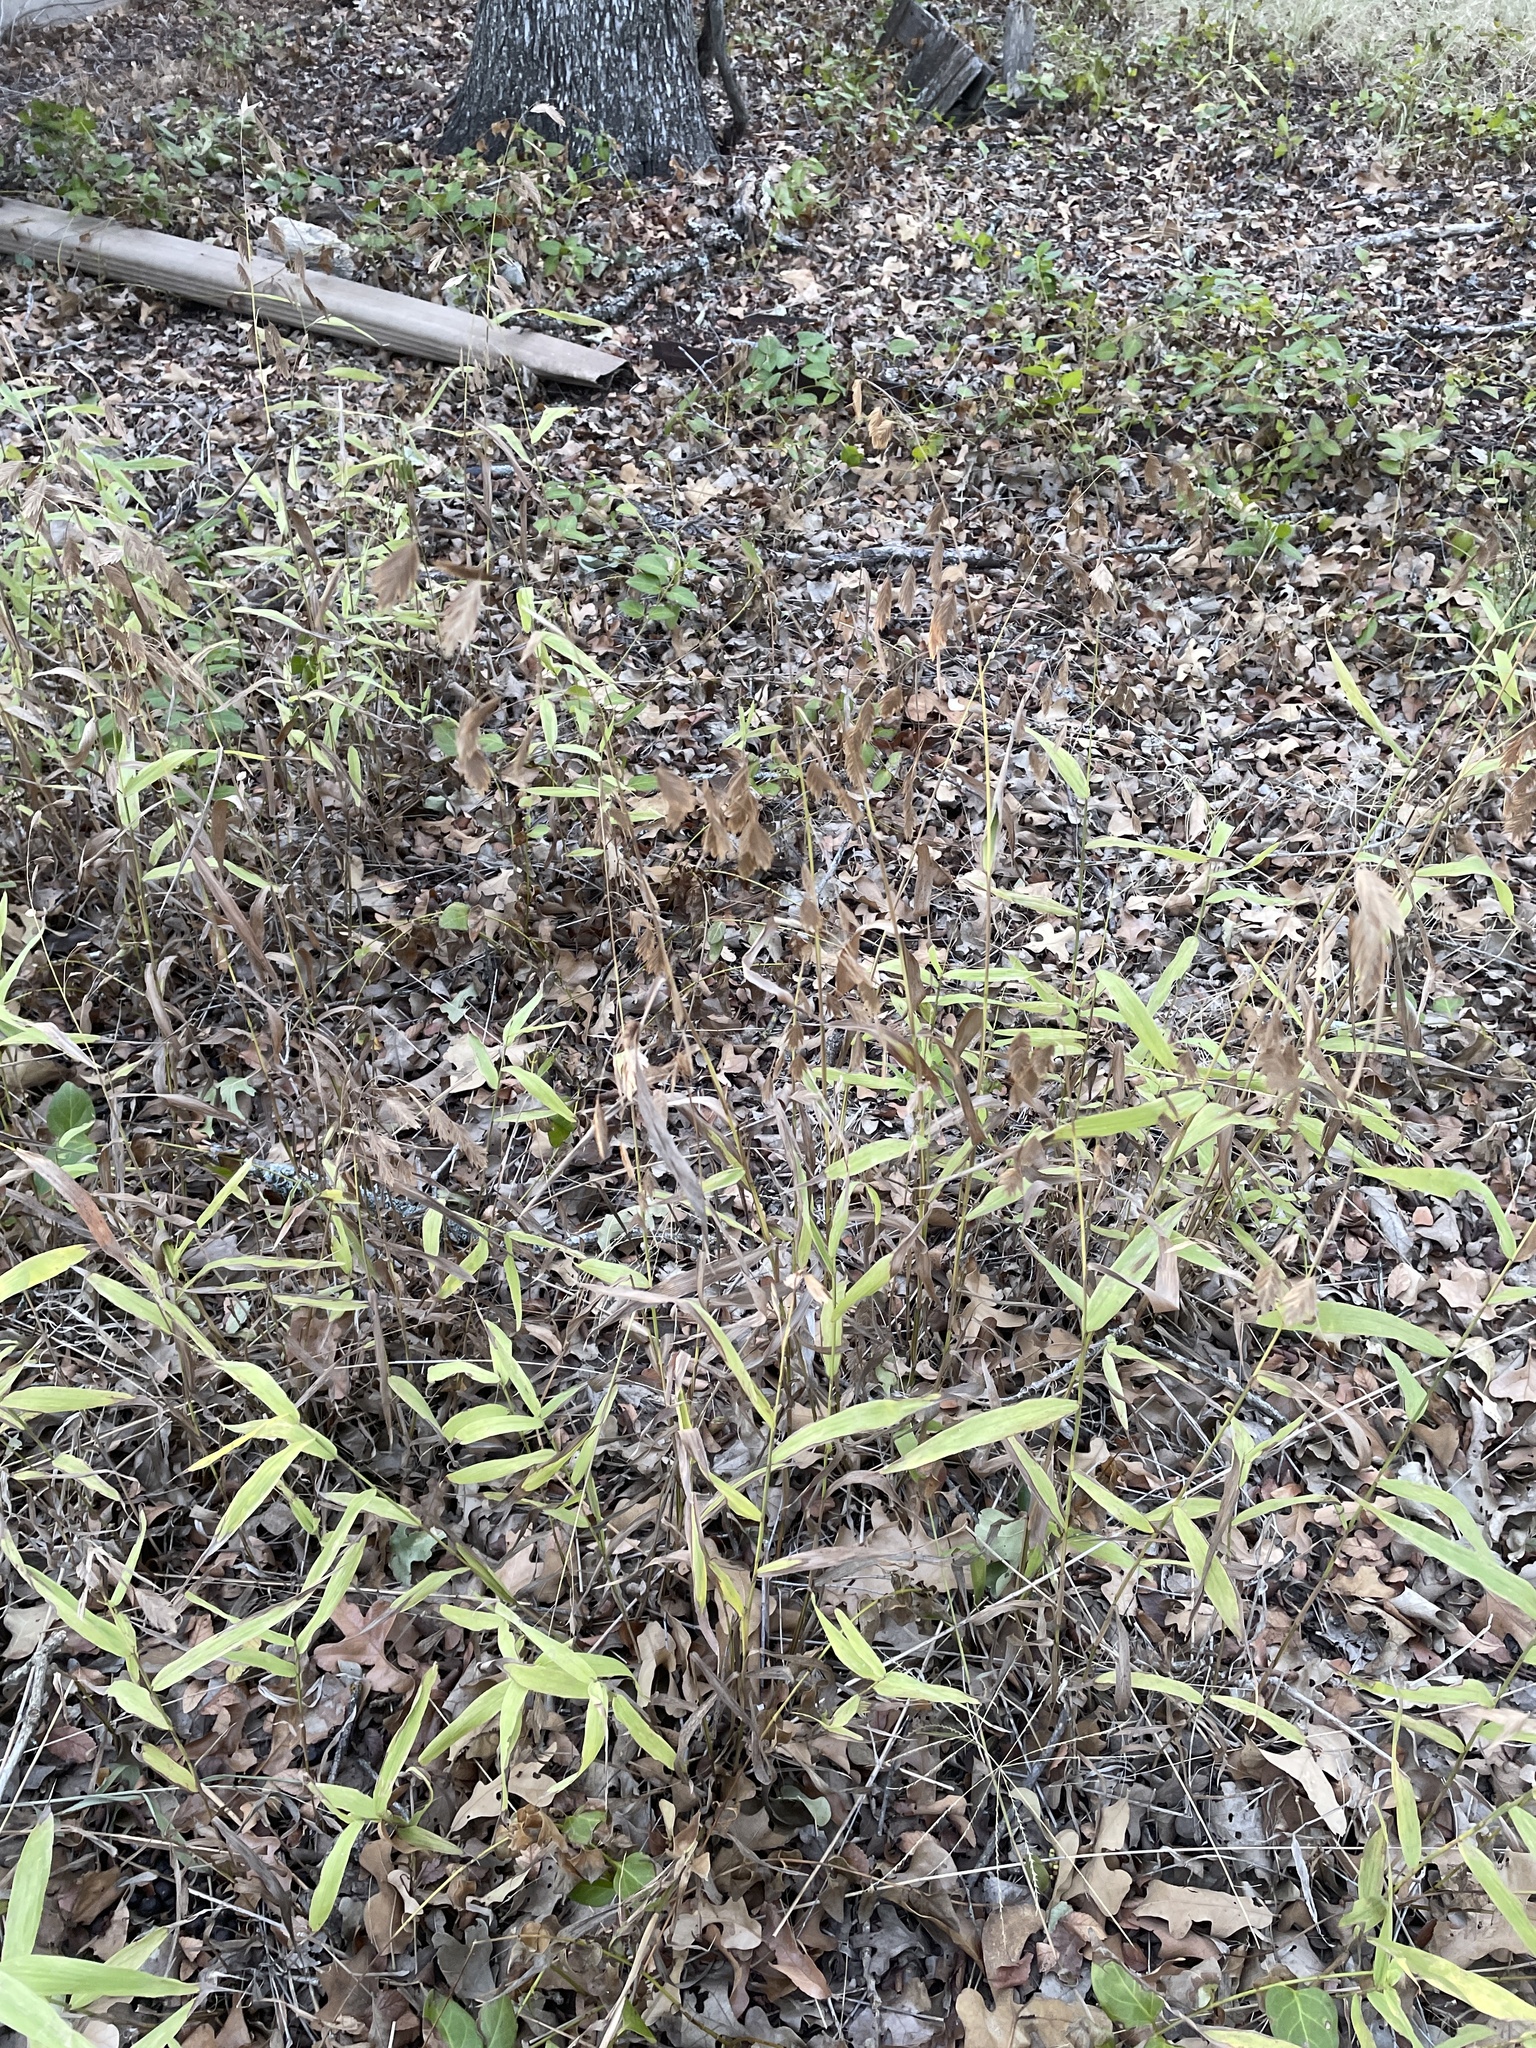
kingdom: Plantae
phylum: Tracheophyta
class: Liliopsida
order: Poales
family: Poaceae
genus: Chasmanthium
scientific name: Chasmanthium latifolium
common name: Broad-leaved chasmanthium
